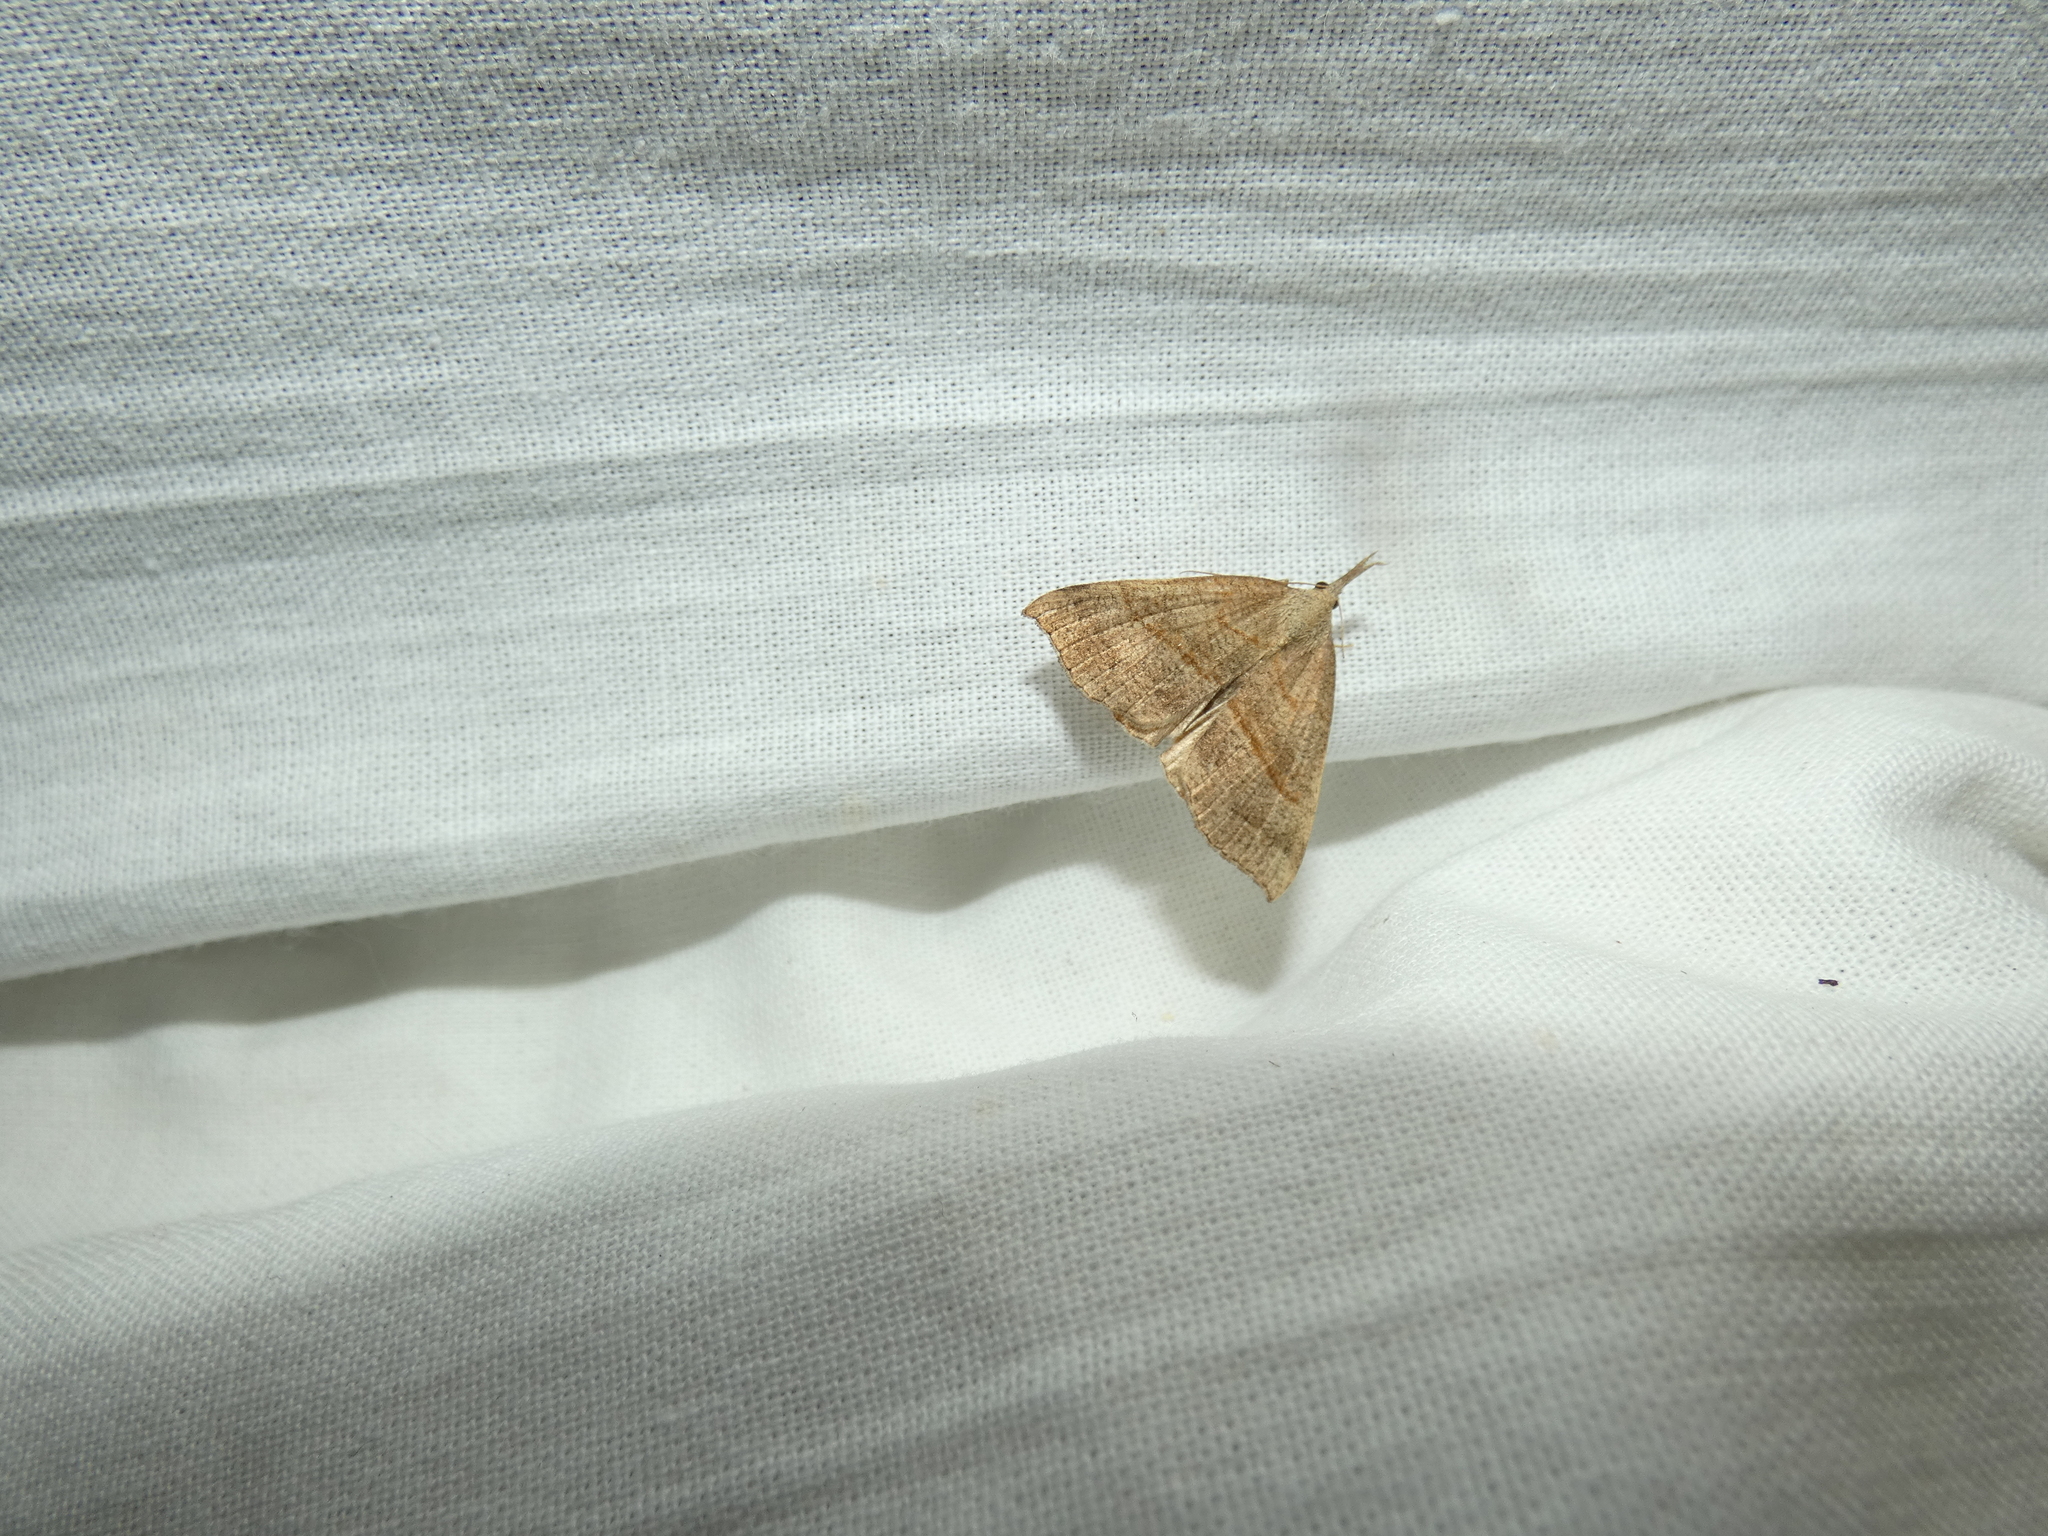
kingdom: Animalia
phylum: Arthropoda
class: Insecta
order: Lepidoptera
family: Erebidae
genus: Hypena
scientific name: Hypena proboscidalis
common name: Snout
